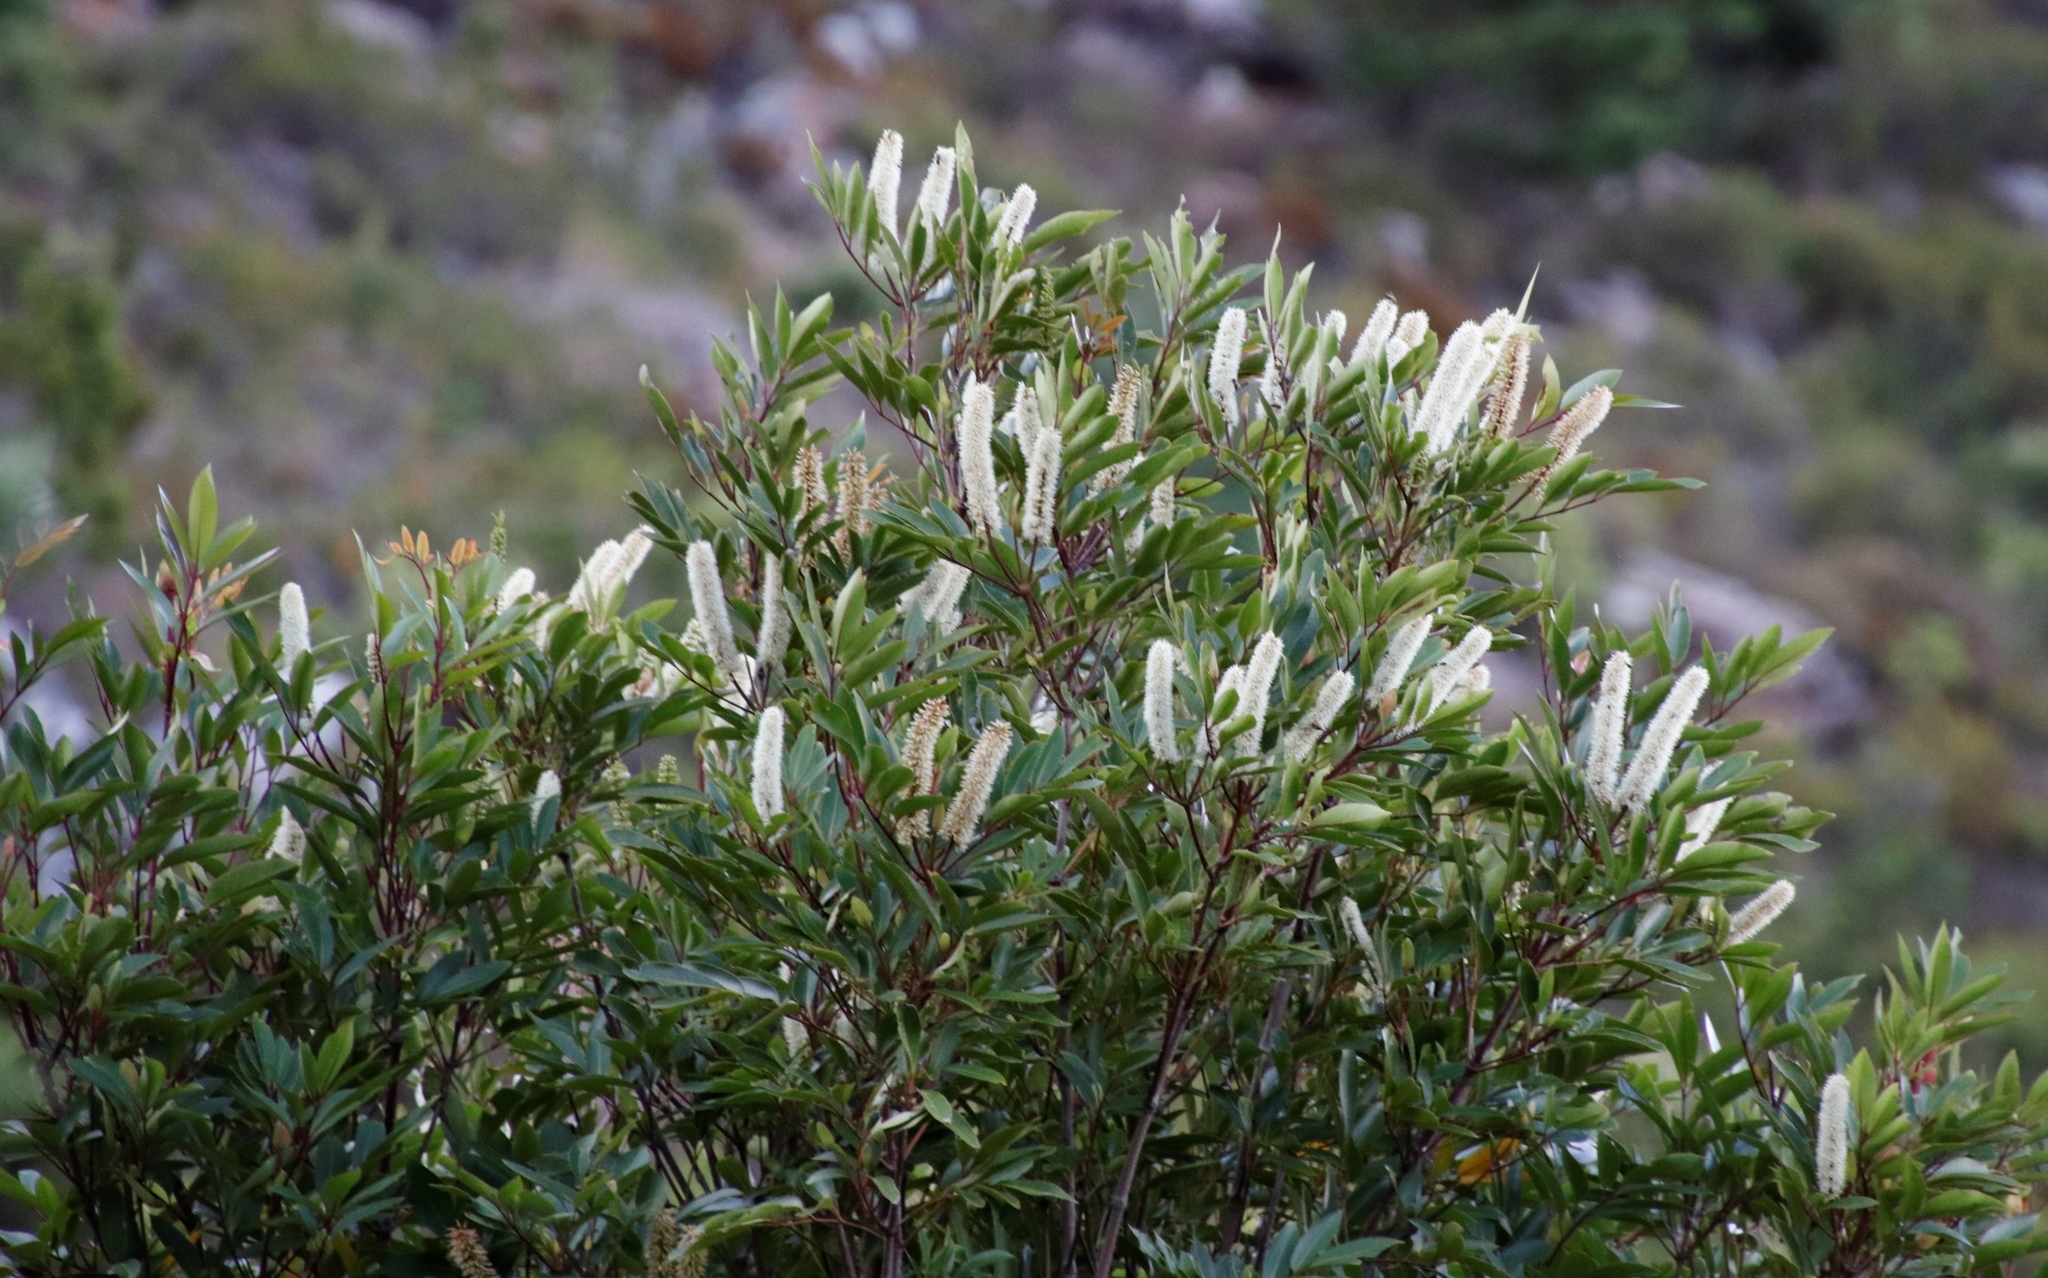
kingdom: Plantae
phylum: Tracheophyta
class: Magnoliopsida
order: Oxalidales
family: Cunoniaceae
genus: Cunonia
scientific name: Cunonia capensis
